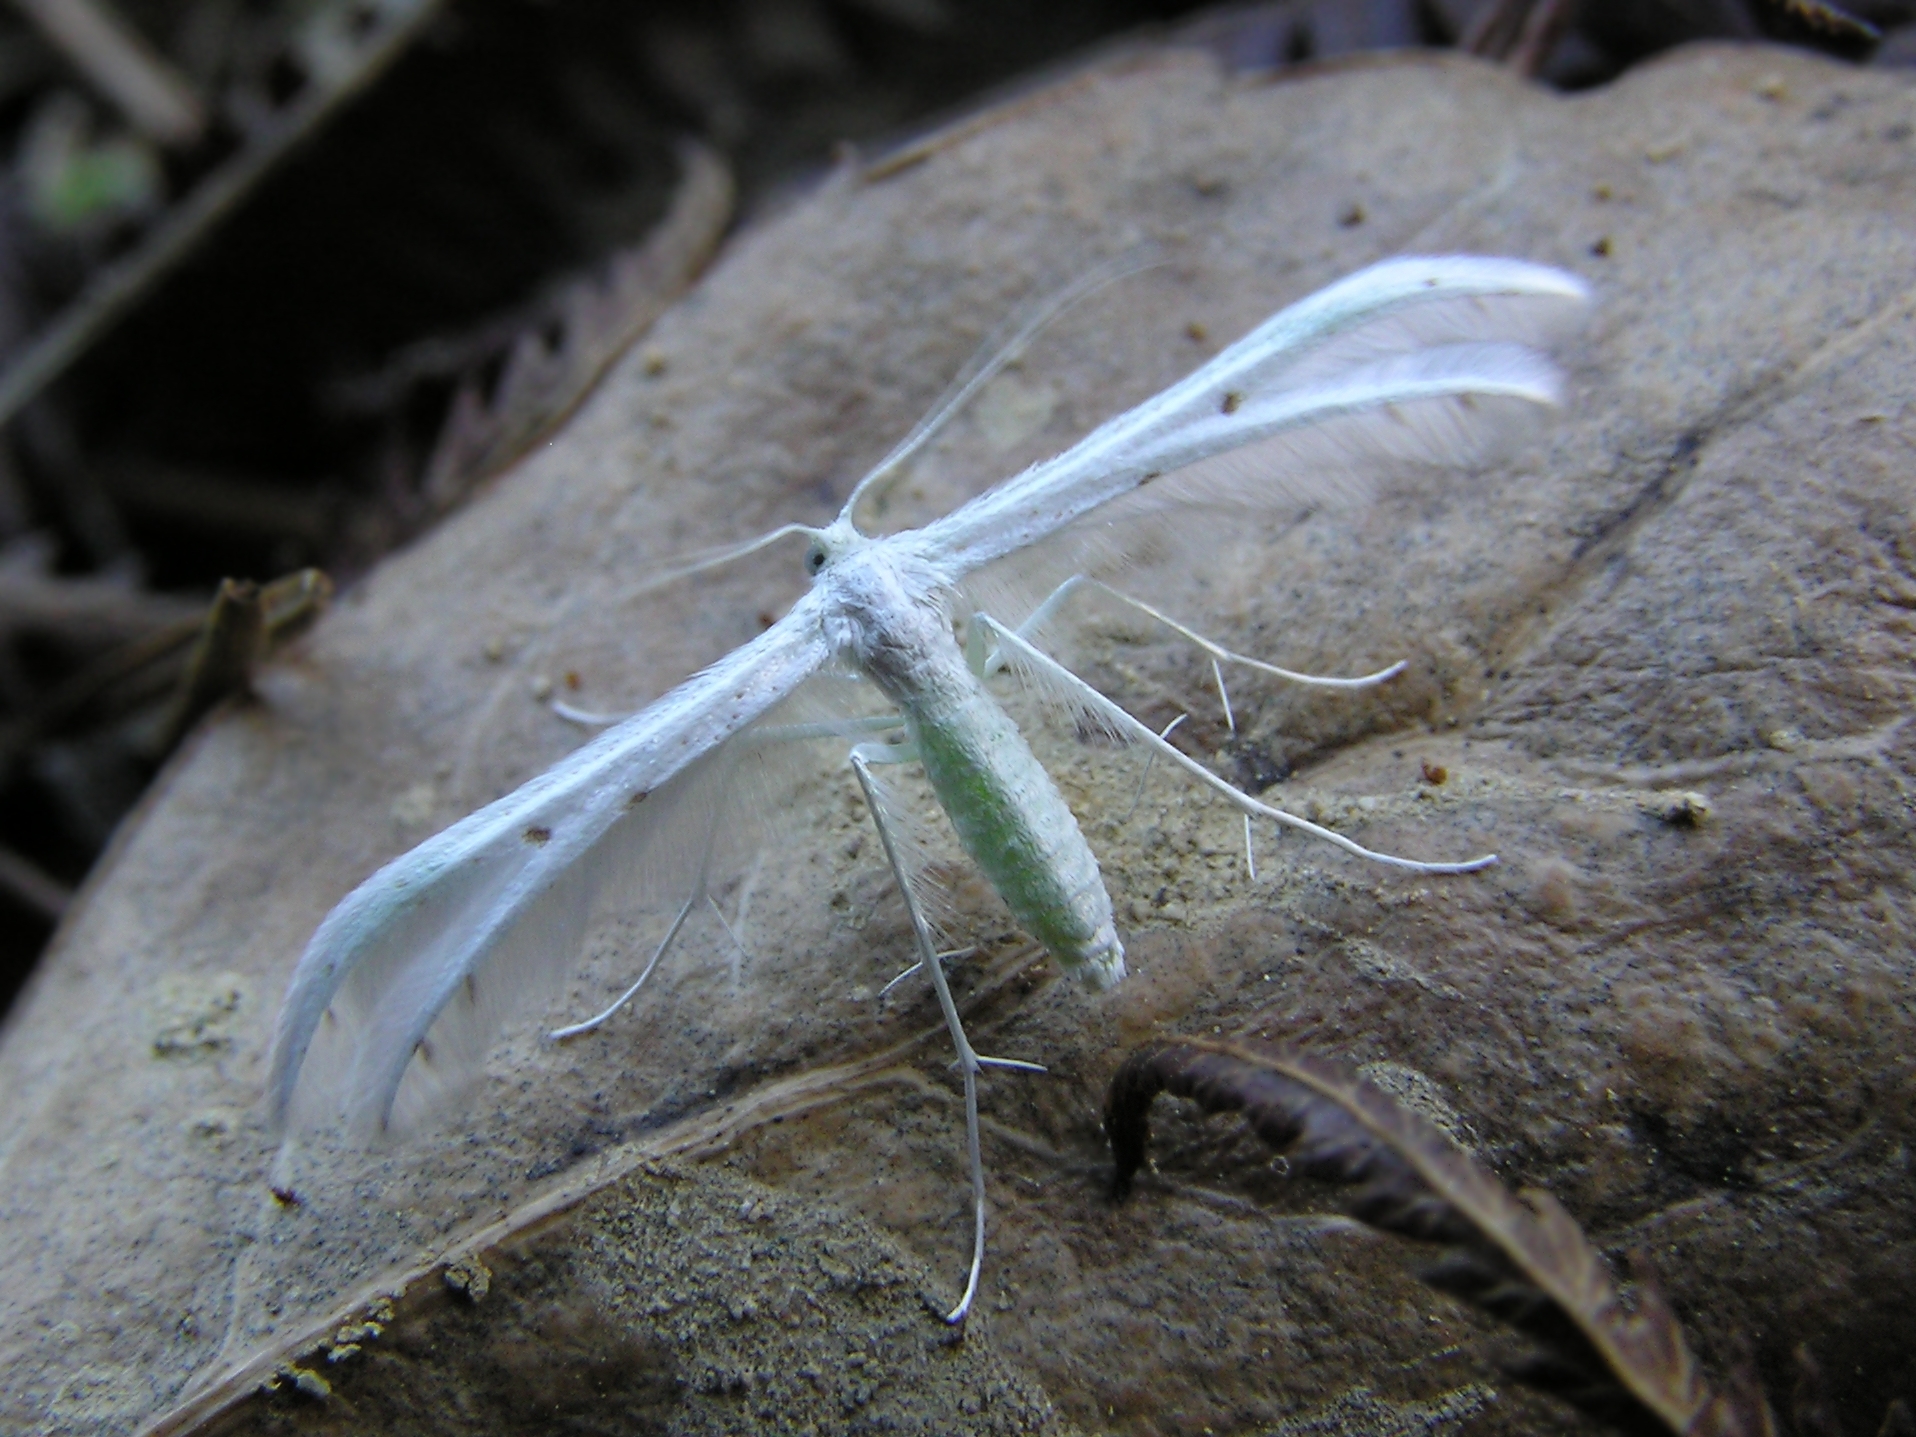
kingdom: Animalia
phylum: Arthropoda
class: Insecta
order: Lepidoptera
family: Pterophoridae
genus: Pterophorus
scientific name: Pterophorus monospilalis
